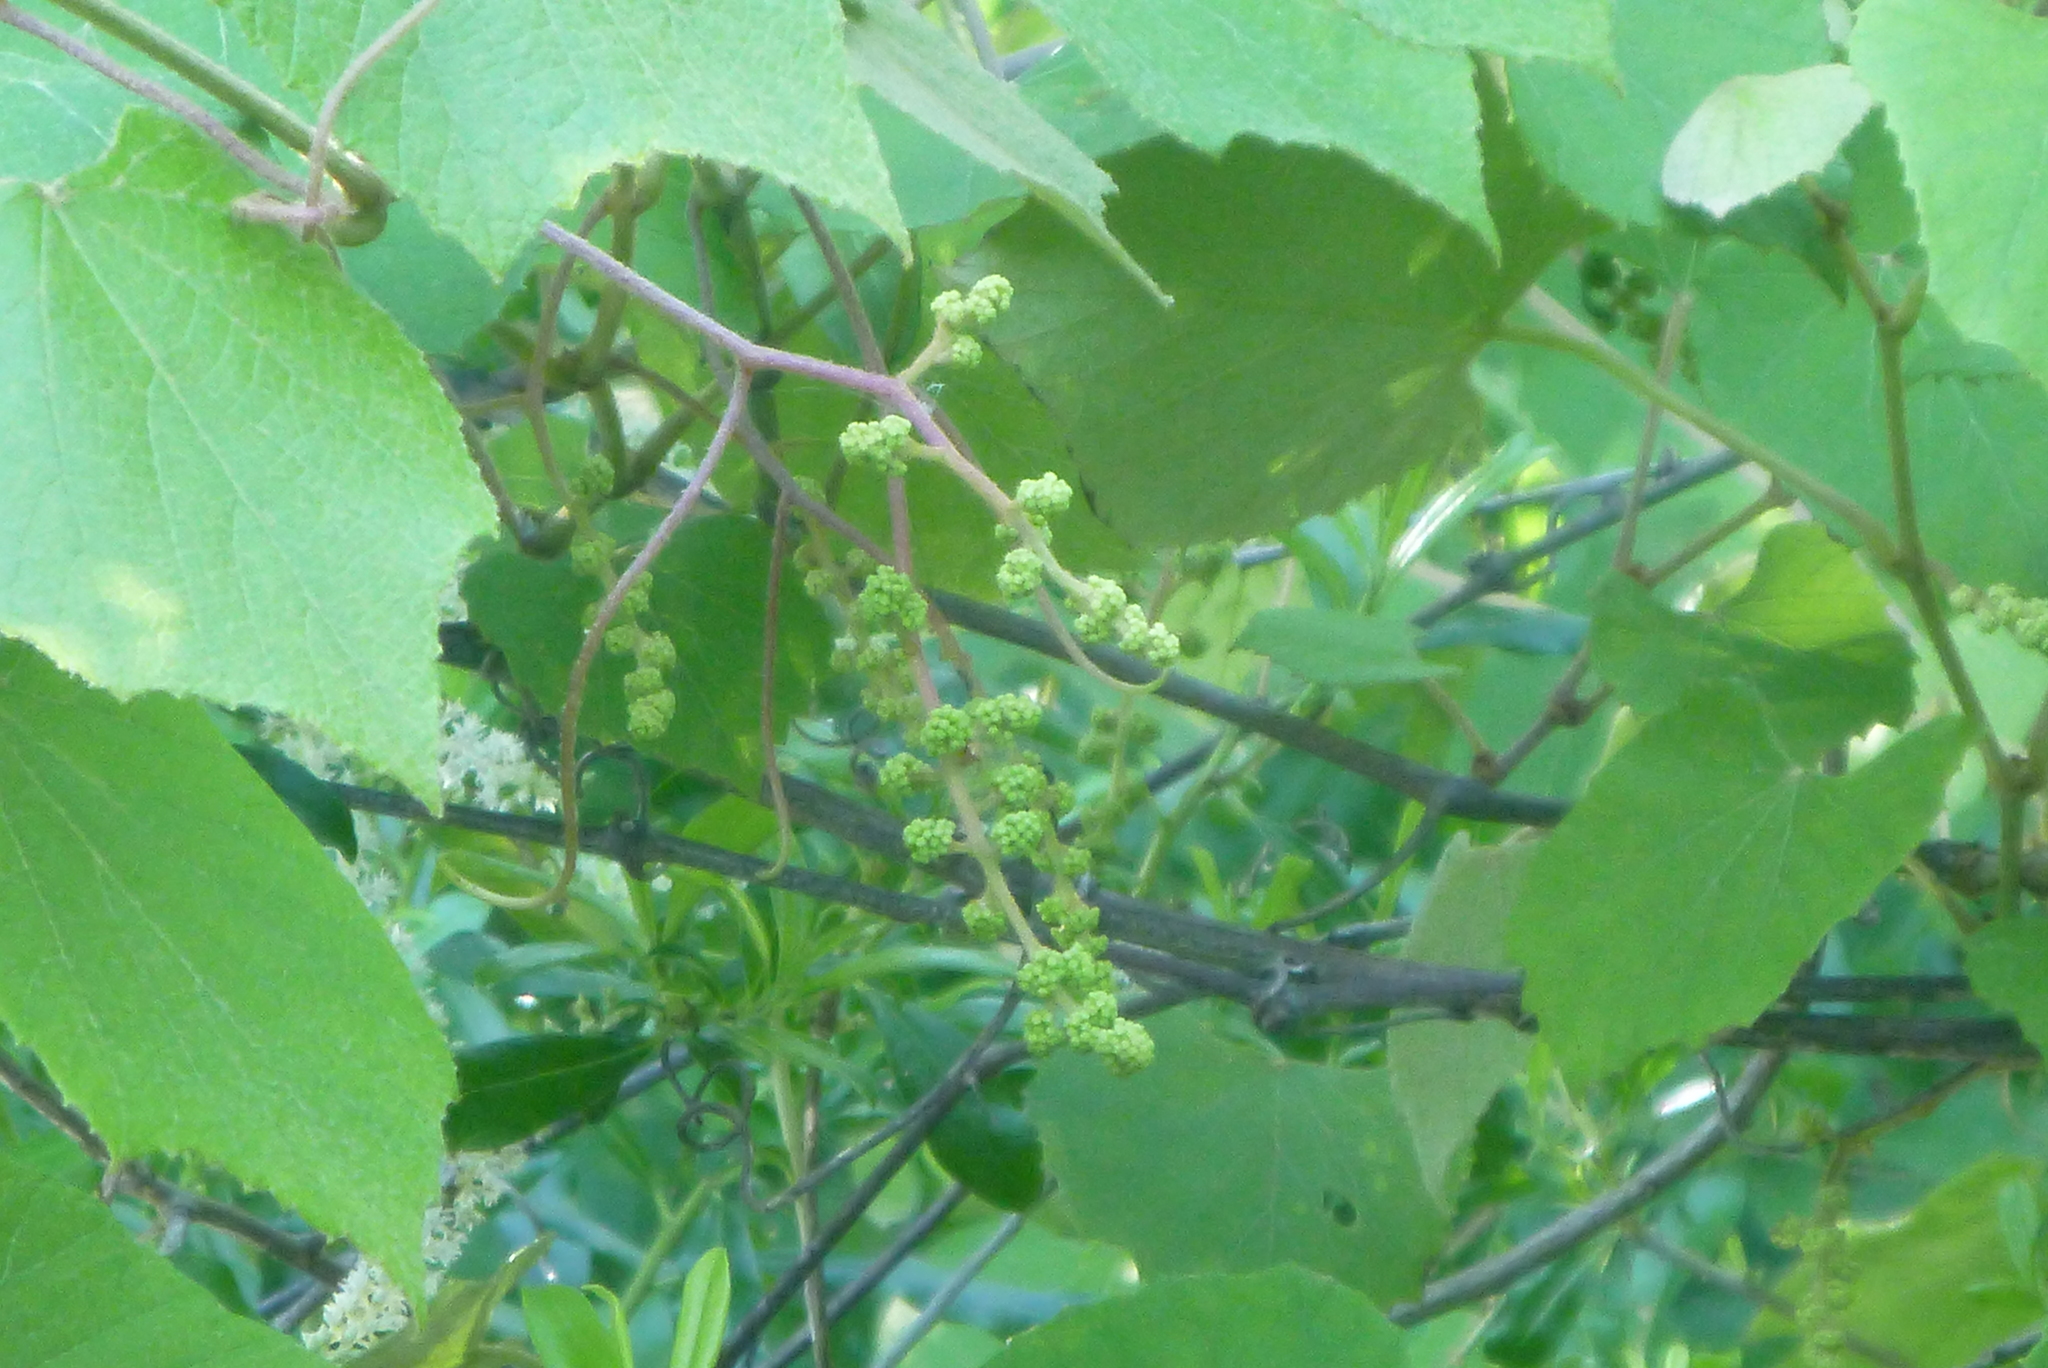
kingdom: Plantae
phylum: Tracheophyta
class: Magnoliopsida
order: Vitales
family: Vitaceae
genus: Vitis
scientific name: Vitis cinerea
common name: Ashy grape
